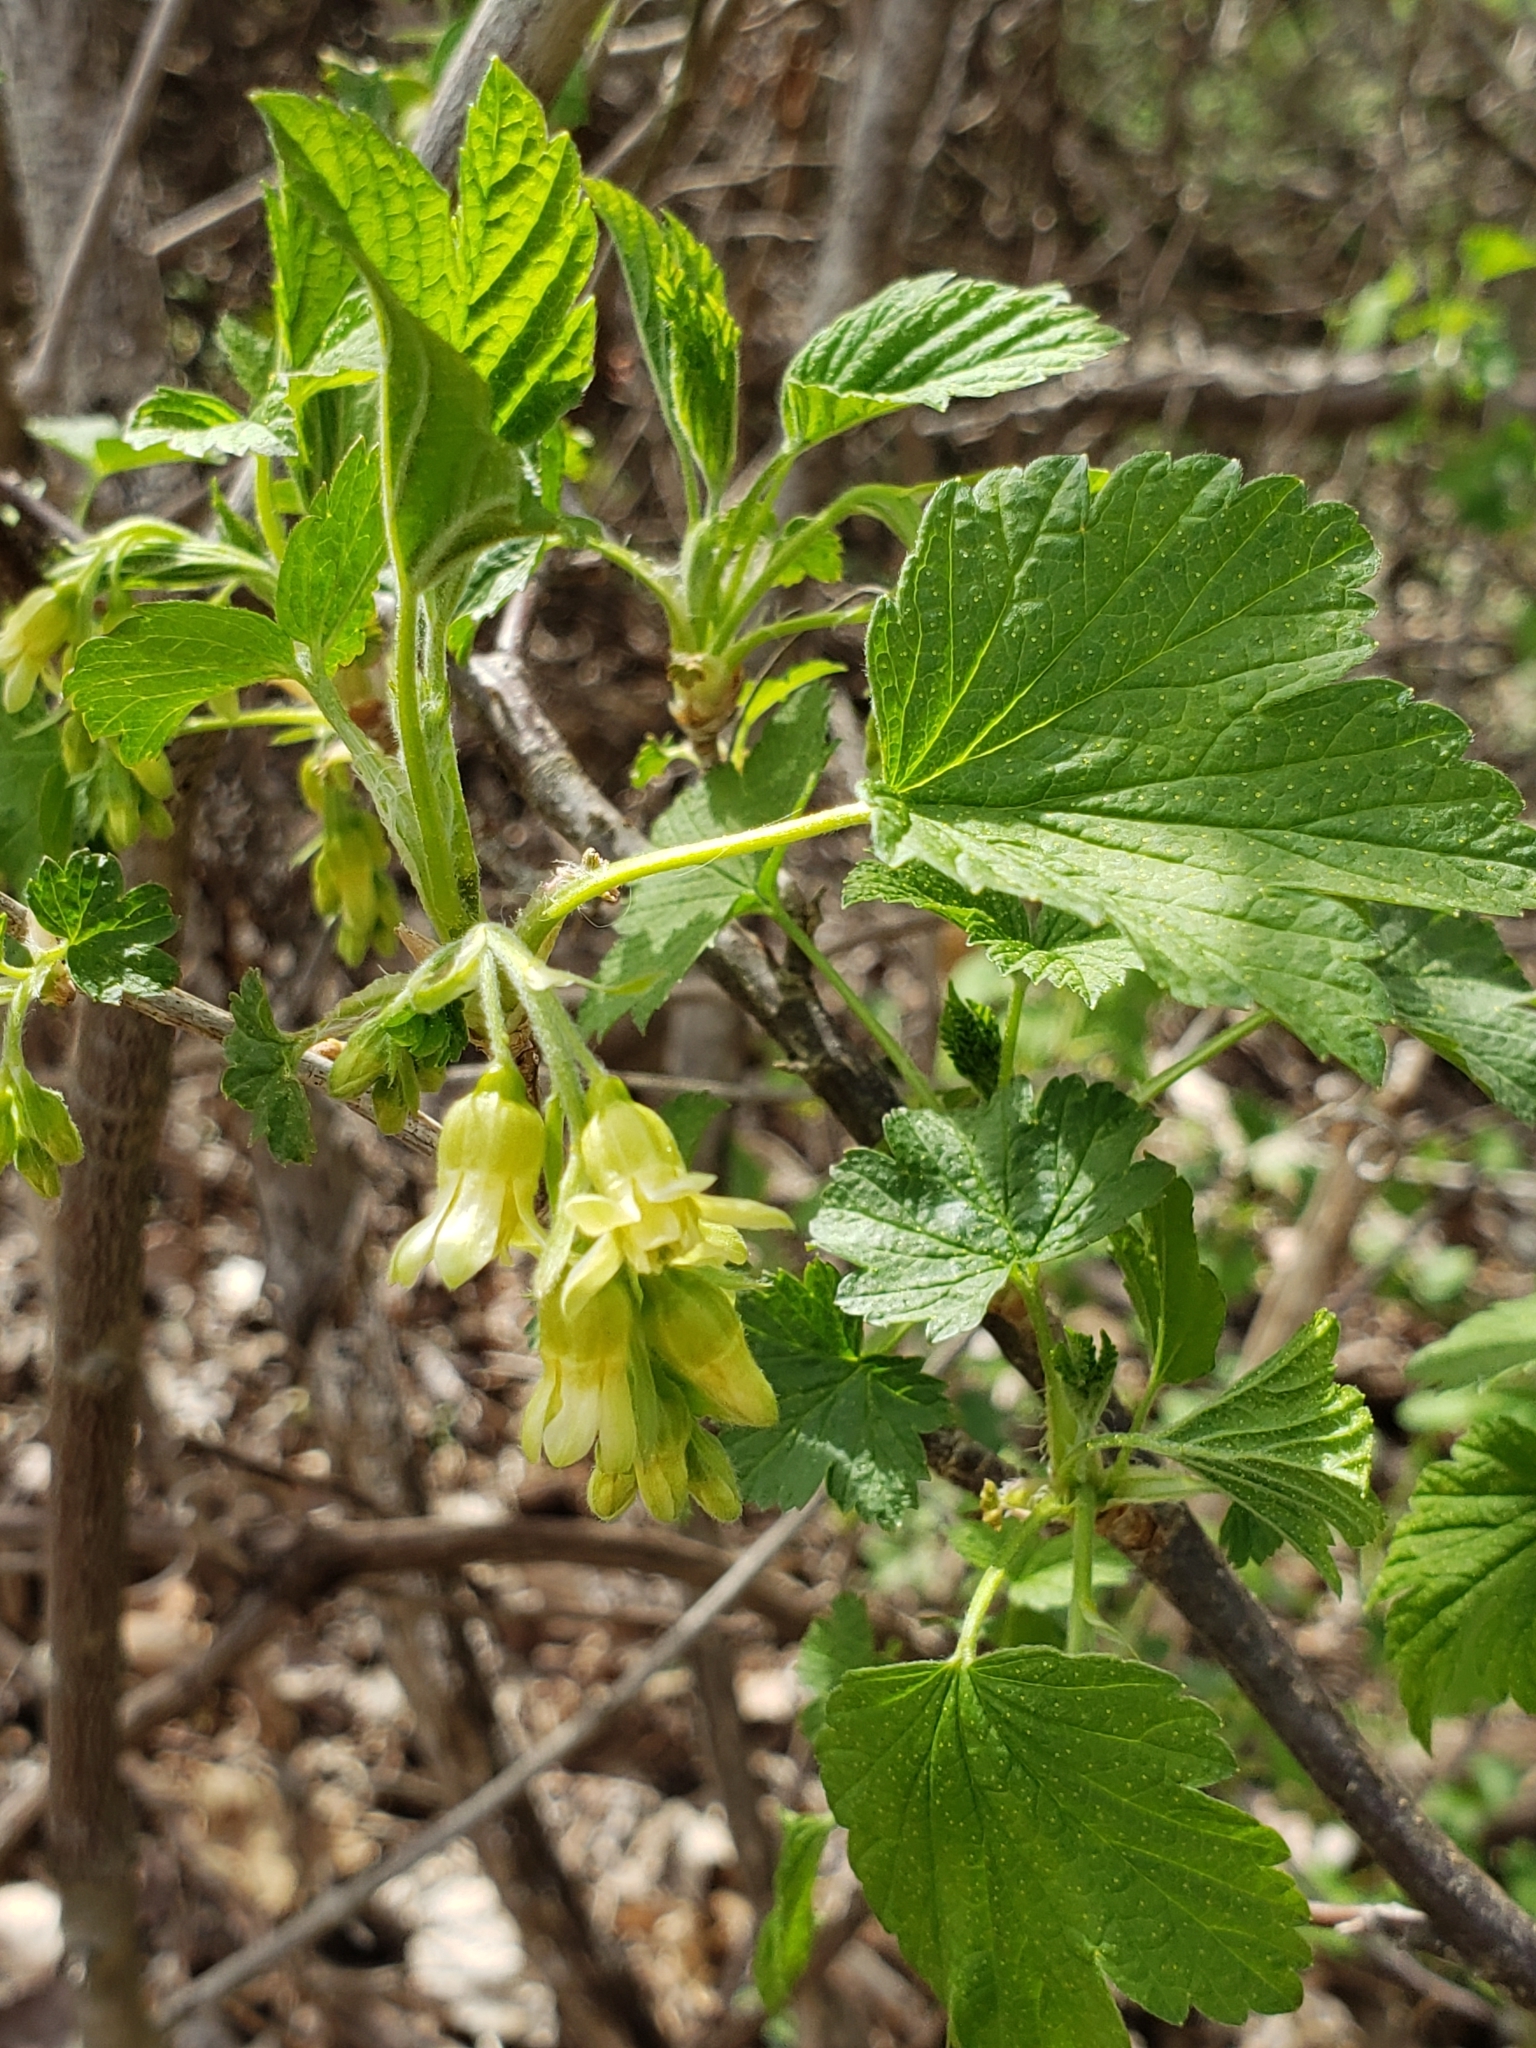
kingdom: Plantae
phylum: Tracheophyta
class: Magnoliopsida
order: Saxifragales
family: Grossulariaceae
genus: Ribes
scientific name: Ribes americanum
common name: American black currant
